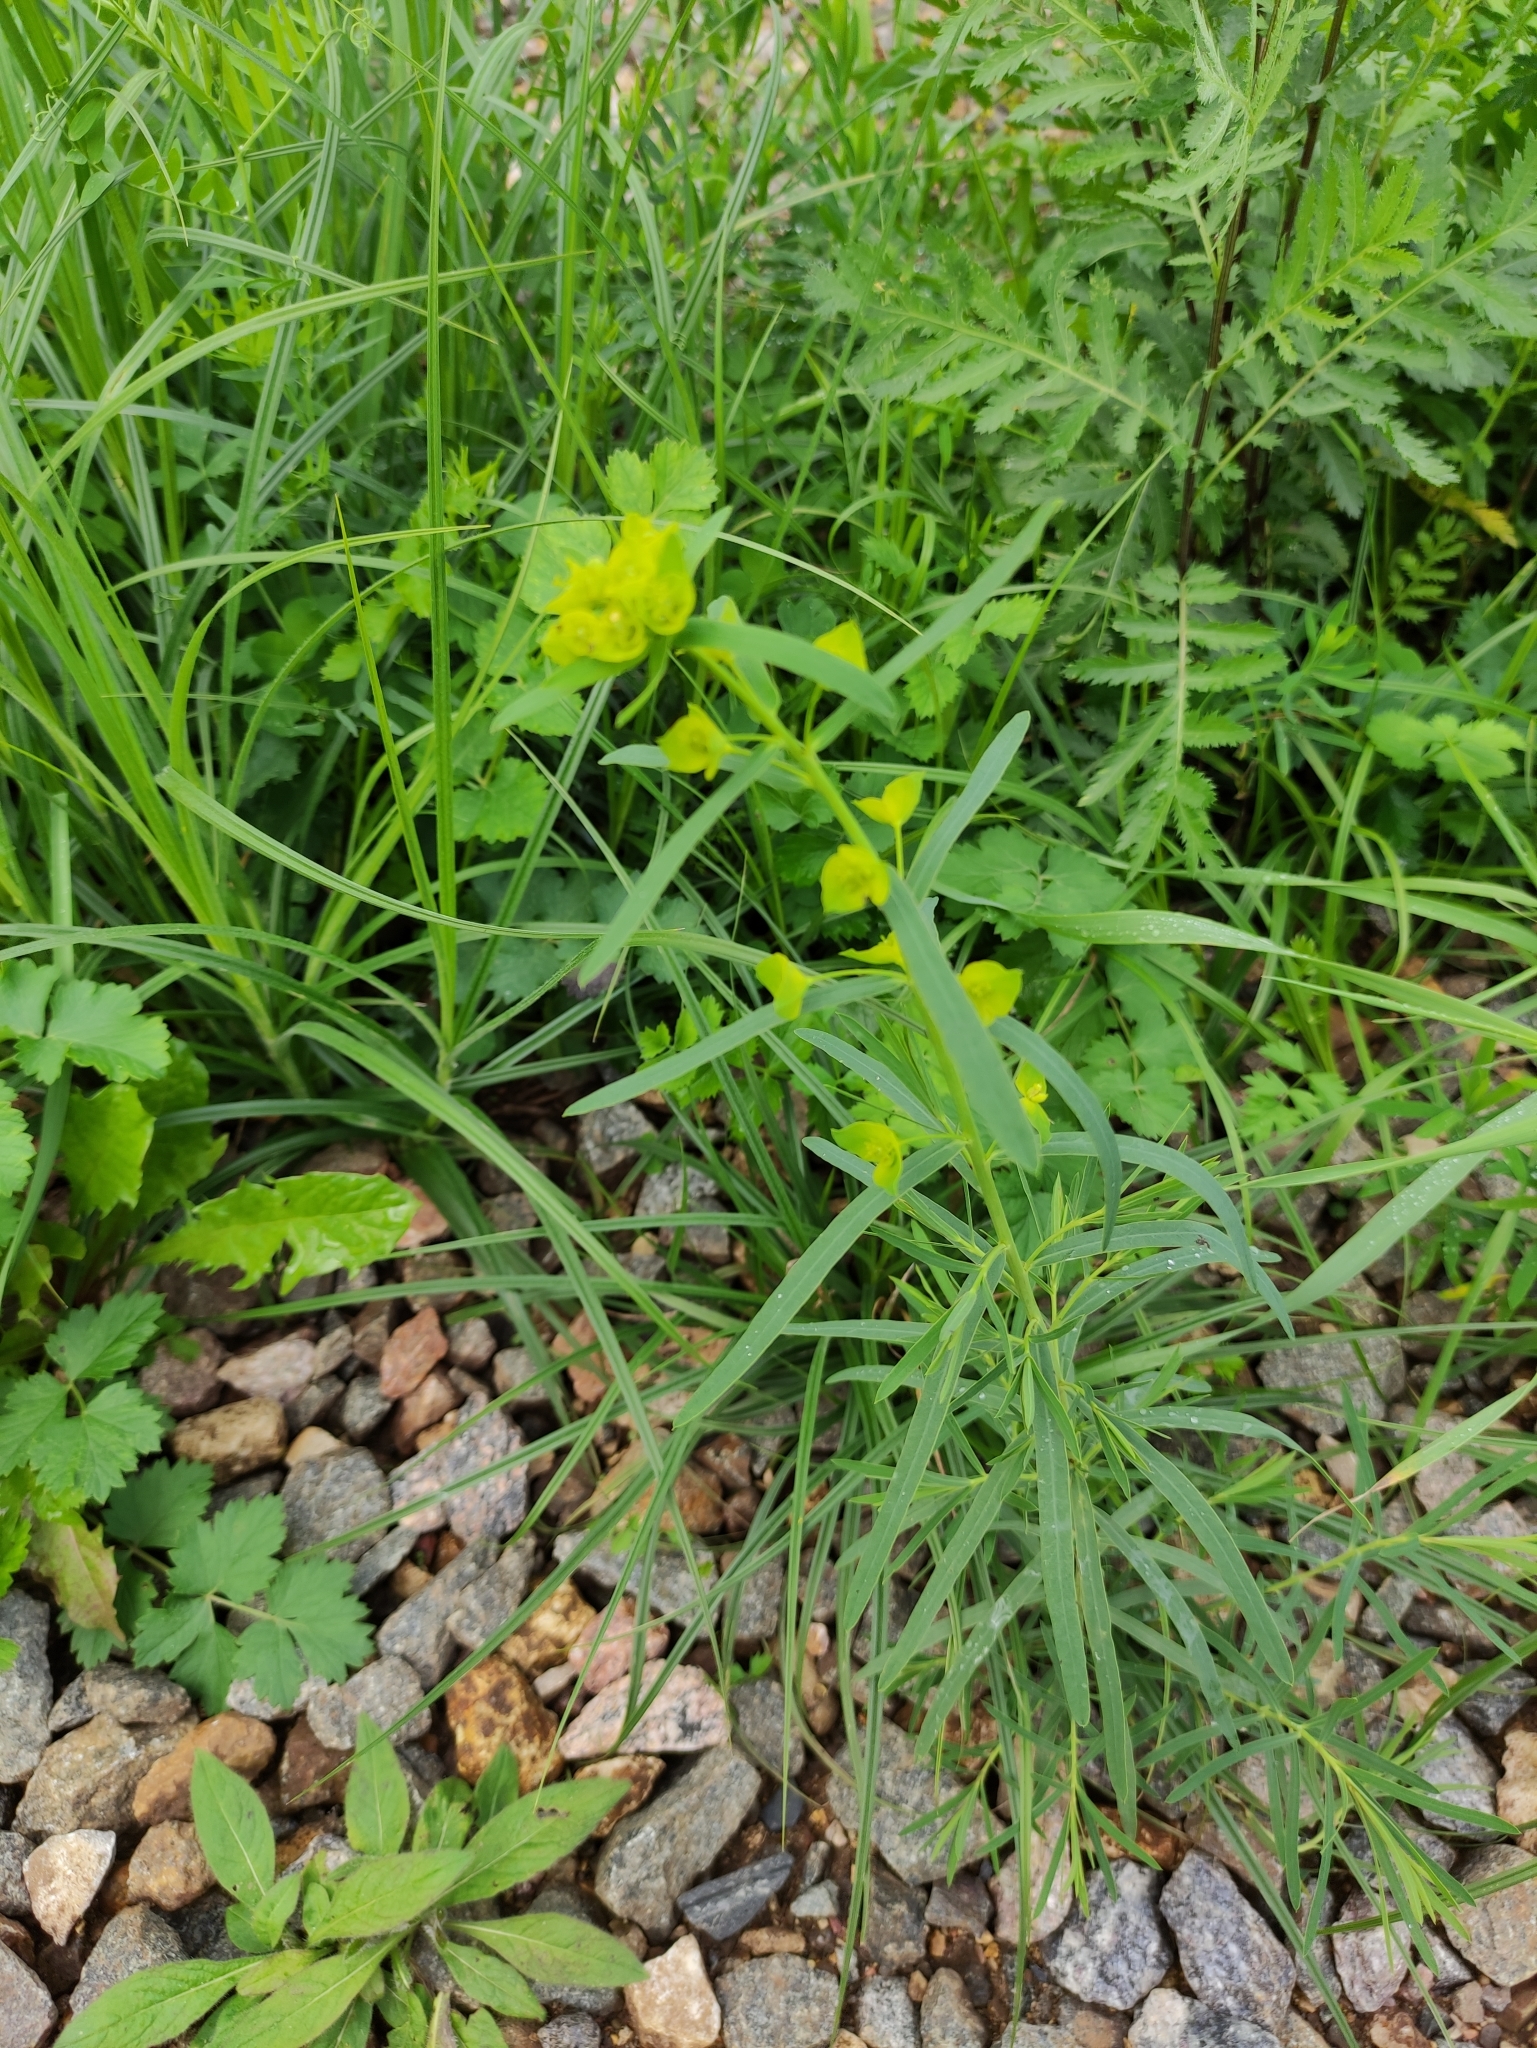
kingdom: Plantae
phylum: Tracheophyta
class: Magnoliopsida
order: Malpighiales
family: Euphorbiaceae
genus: Euphorbia
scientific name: Euphorbia virgata
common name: Leafy spurge
